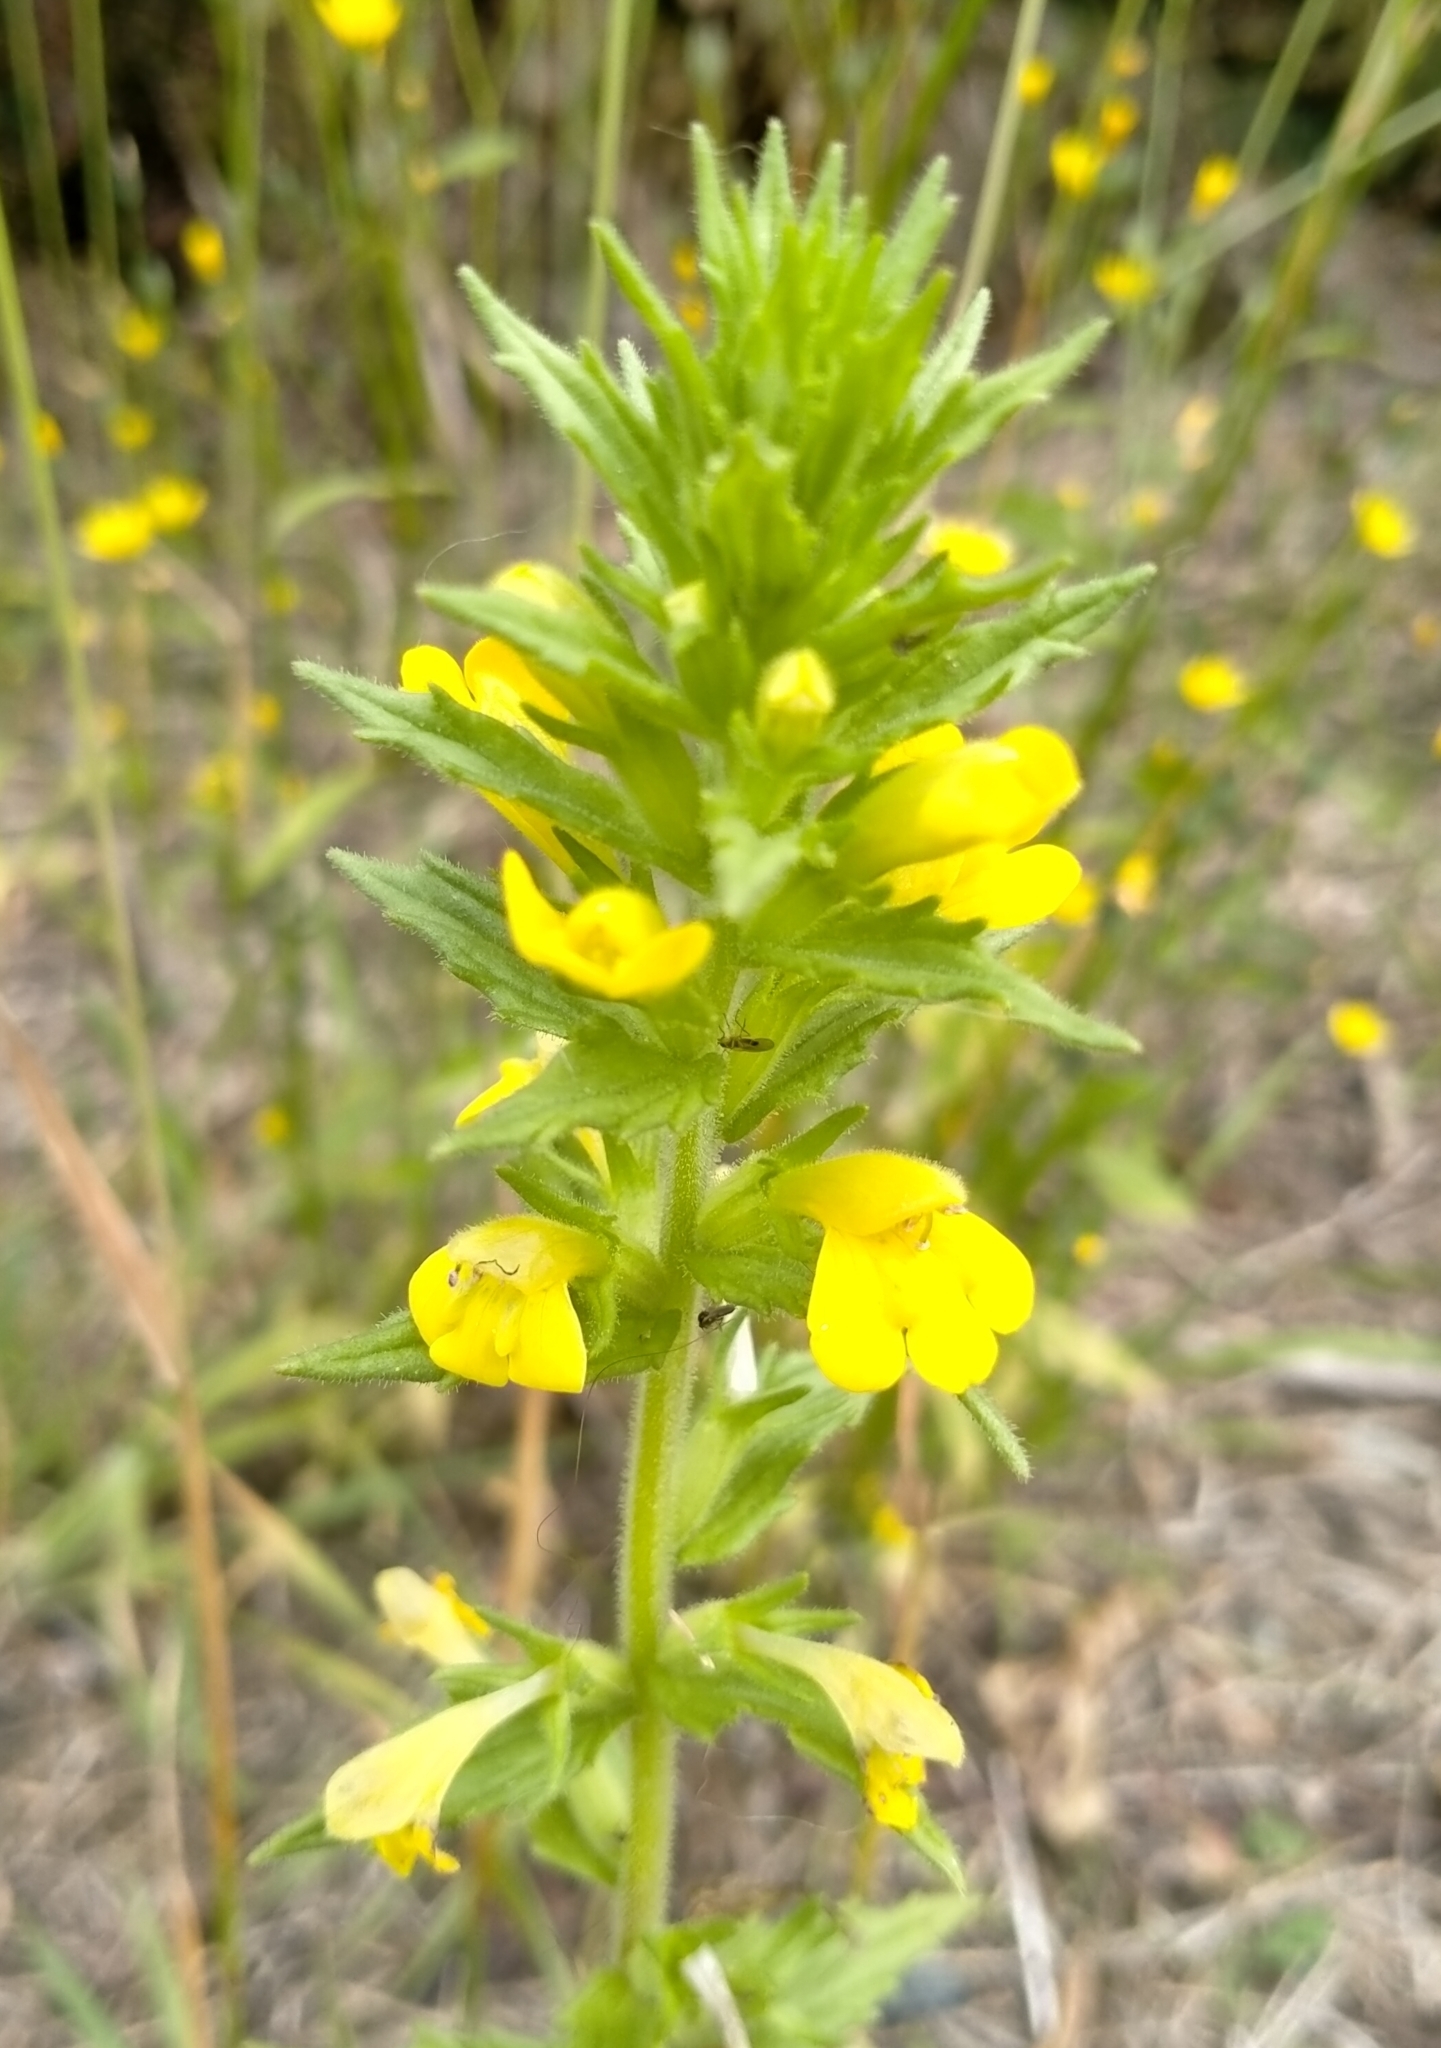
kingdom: Plantae
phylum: Tracheophyta
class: Magnoliopsida
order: Lamiales
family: Orobanchaceae
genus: Bellardia
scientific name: Bellardia viscosa
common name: Sticky parentucellia
